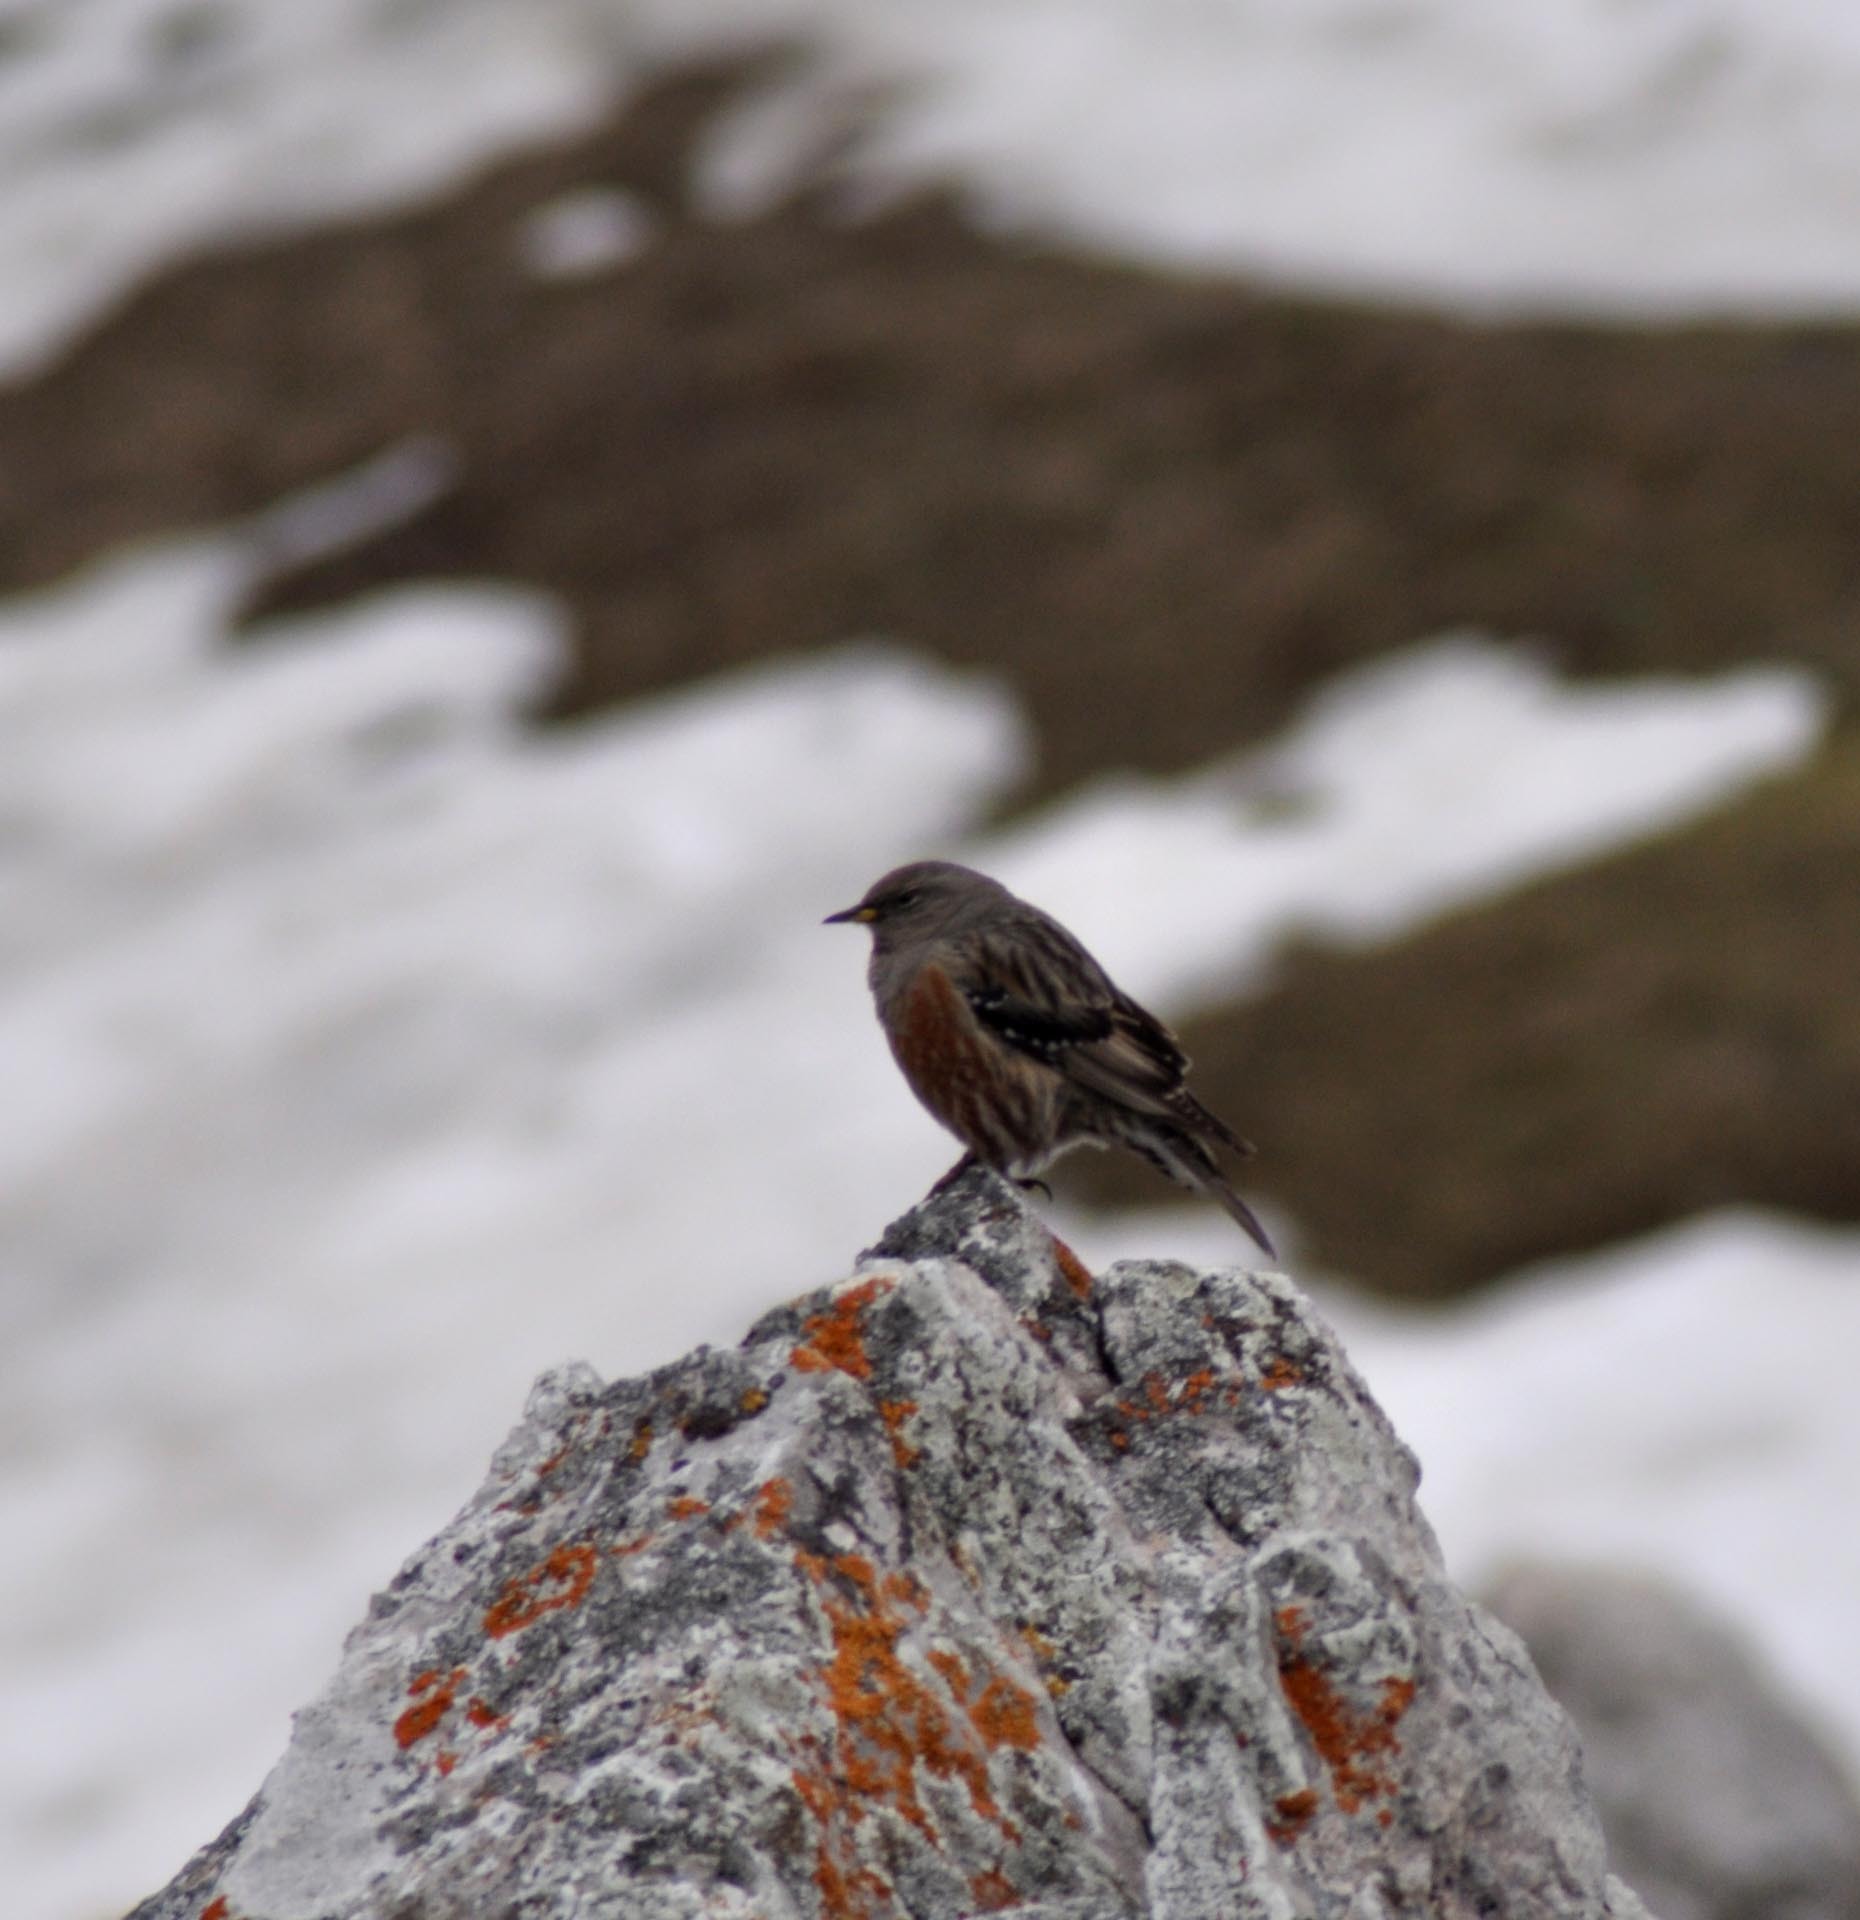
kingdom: Animalia
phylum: Chordata
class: Aves
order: Passeriformes
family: Prunellidae
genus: Prunella
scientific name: Prunella collaris
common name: Alpine accentor
